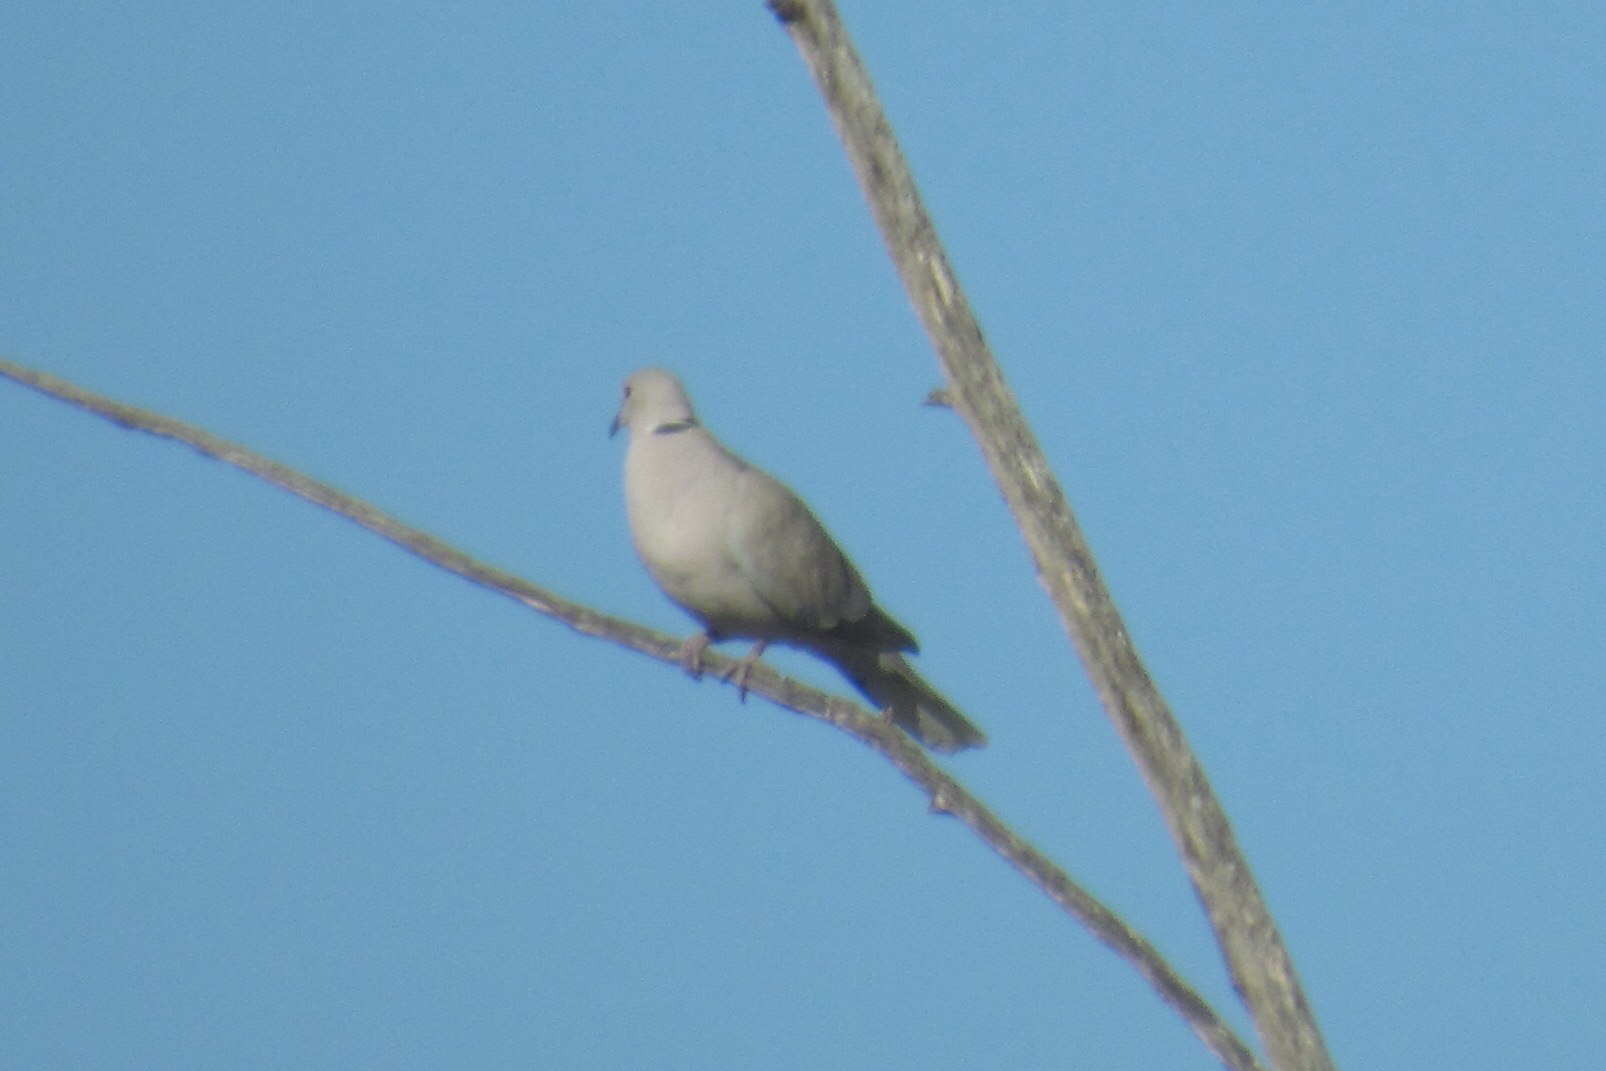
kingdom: Animalia
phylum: Chordata
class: Aves
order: Columbiformes
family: Columbidae
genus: Streptopelia
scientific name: Streptopelia decaocto
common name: Eurasian collared dove
